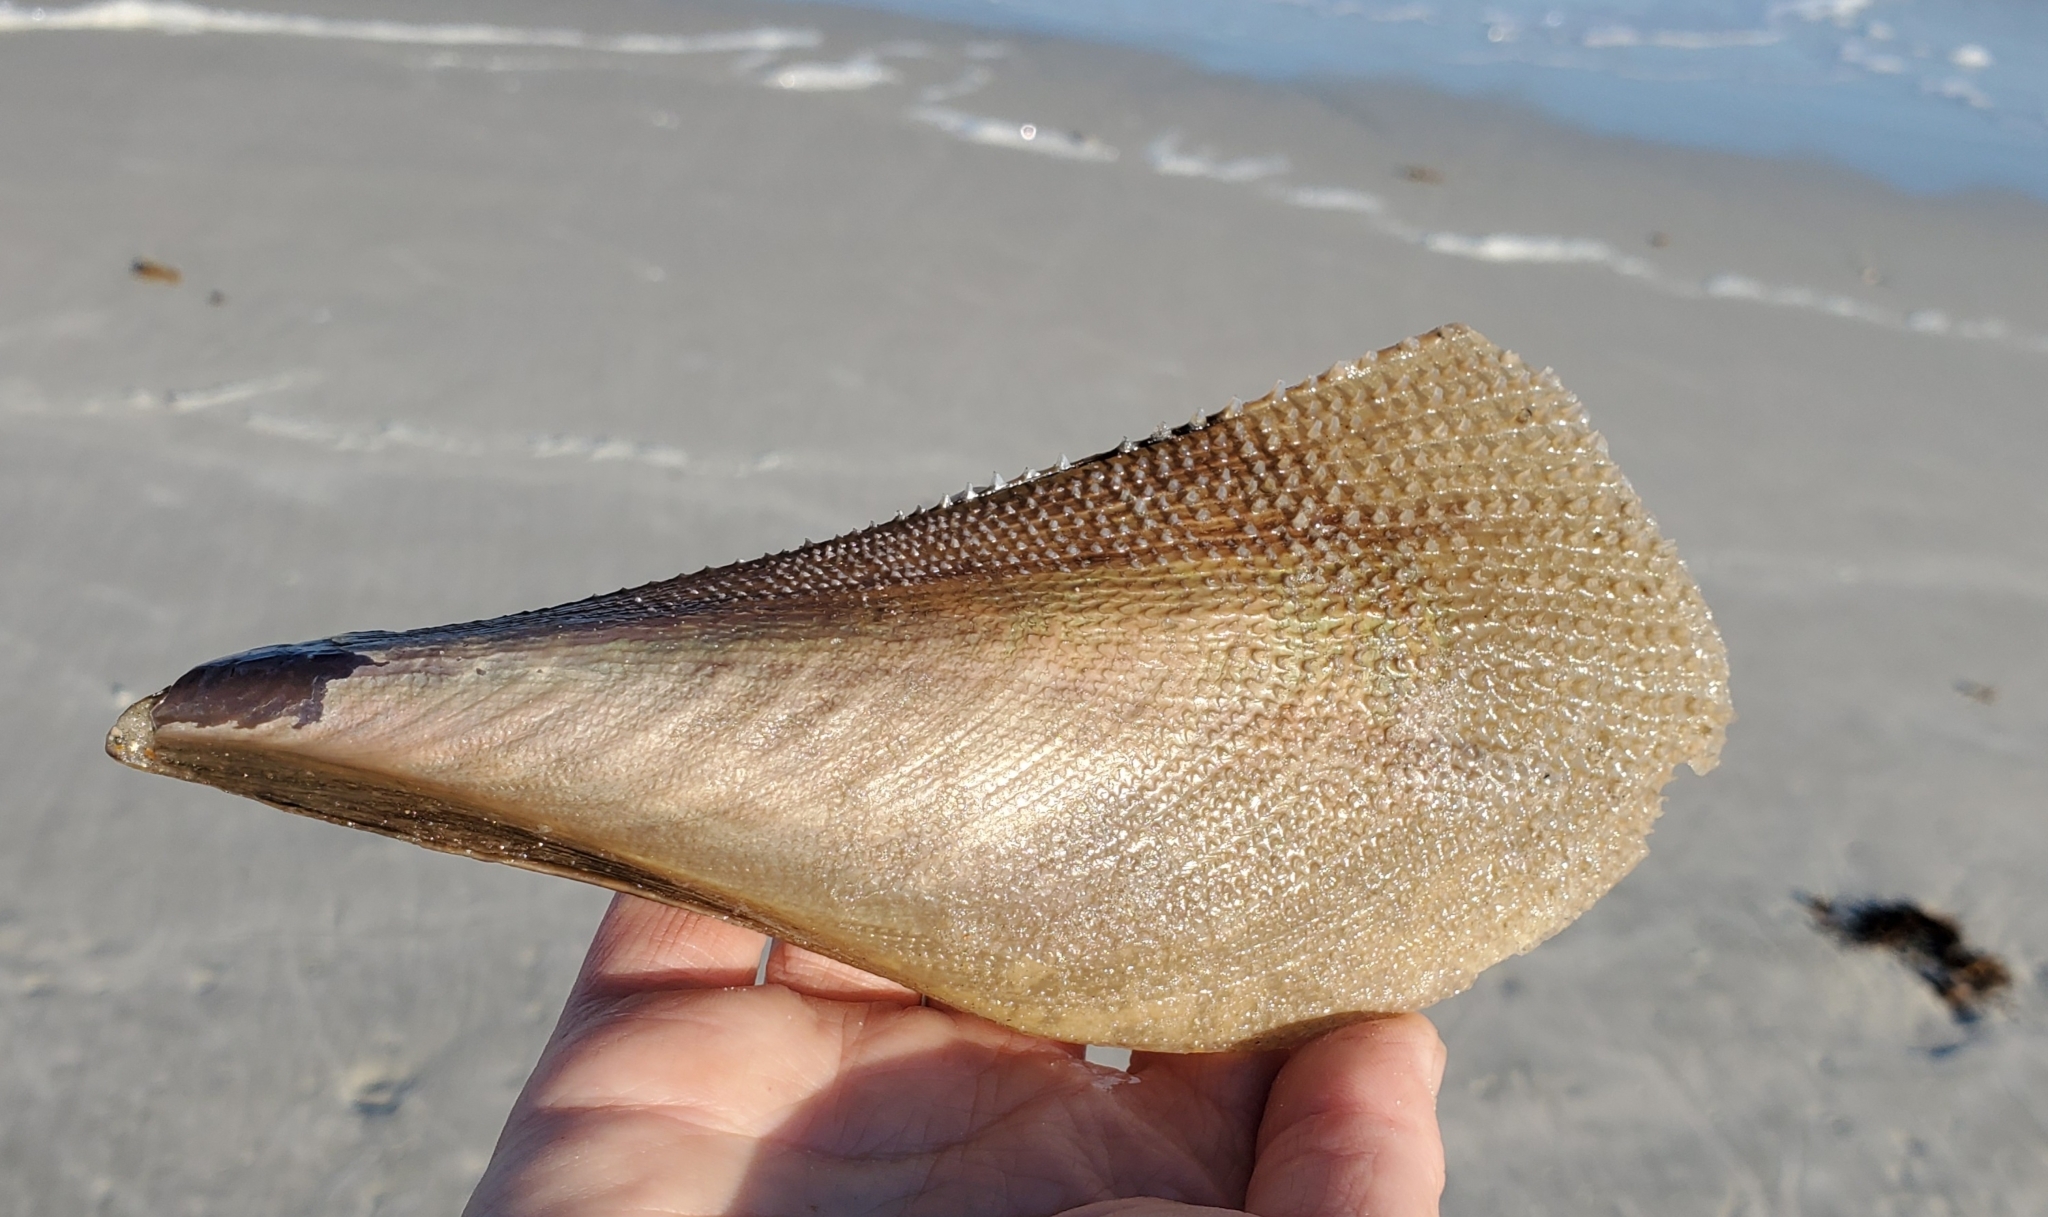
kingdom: Animalia
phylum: Mollusca
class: Bivalvia
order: Ostreida
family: Pinnidae
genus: Atrina
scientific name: Atrina serrata
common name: Saw-toothed penshell
